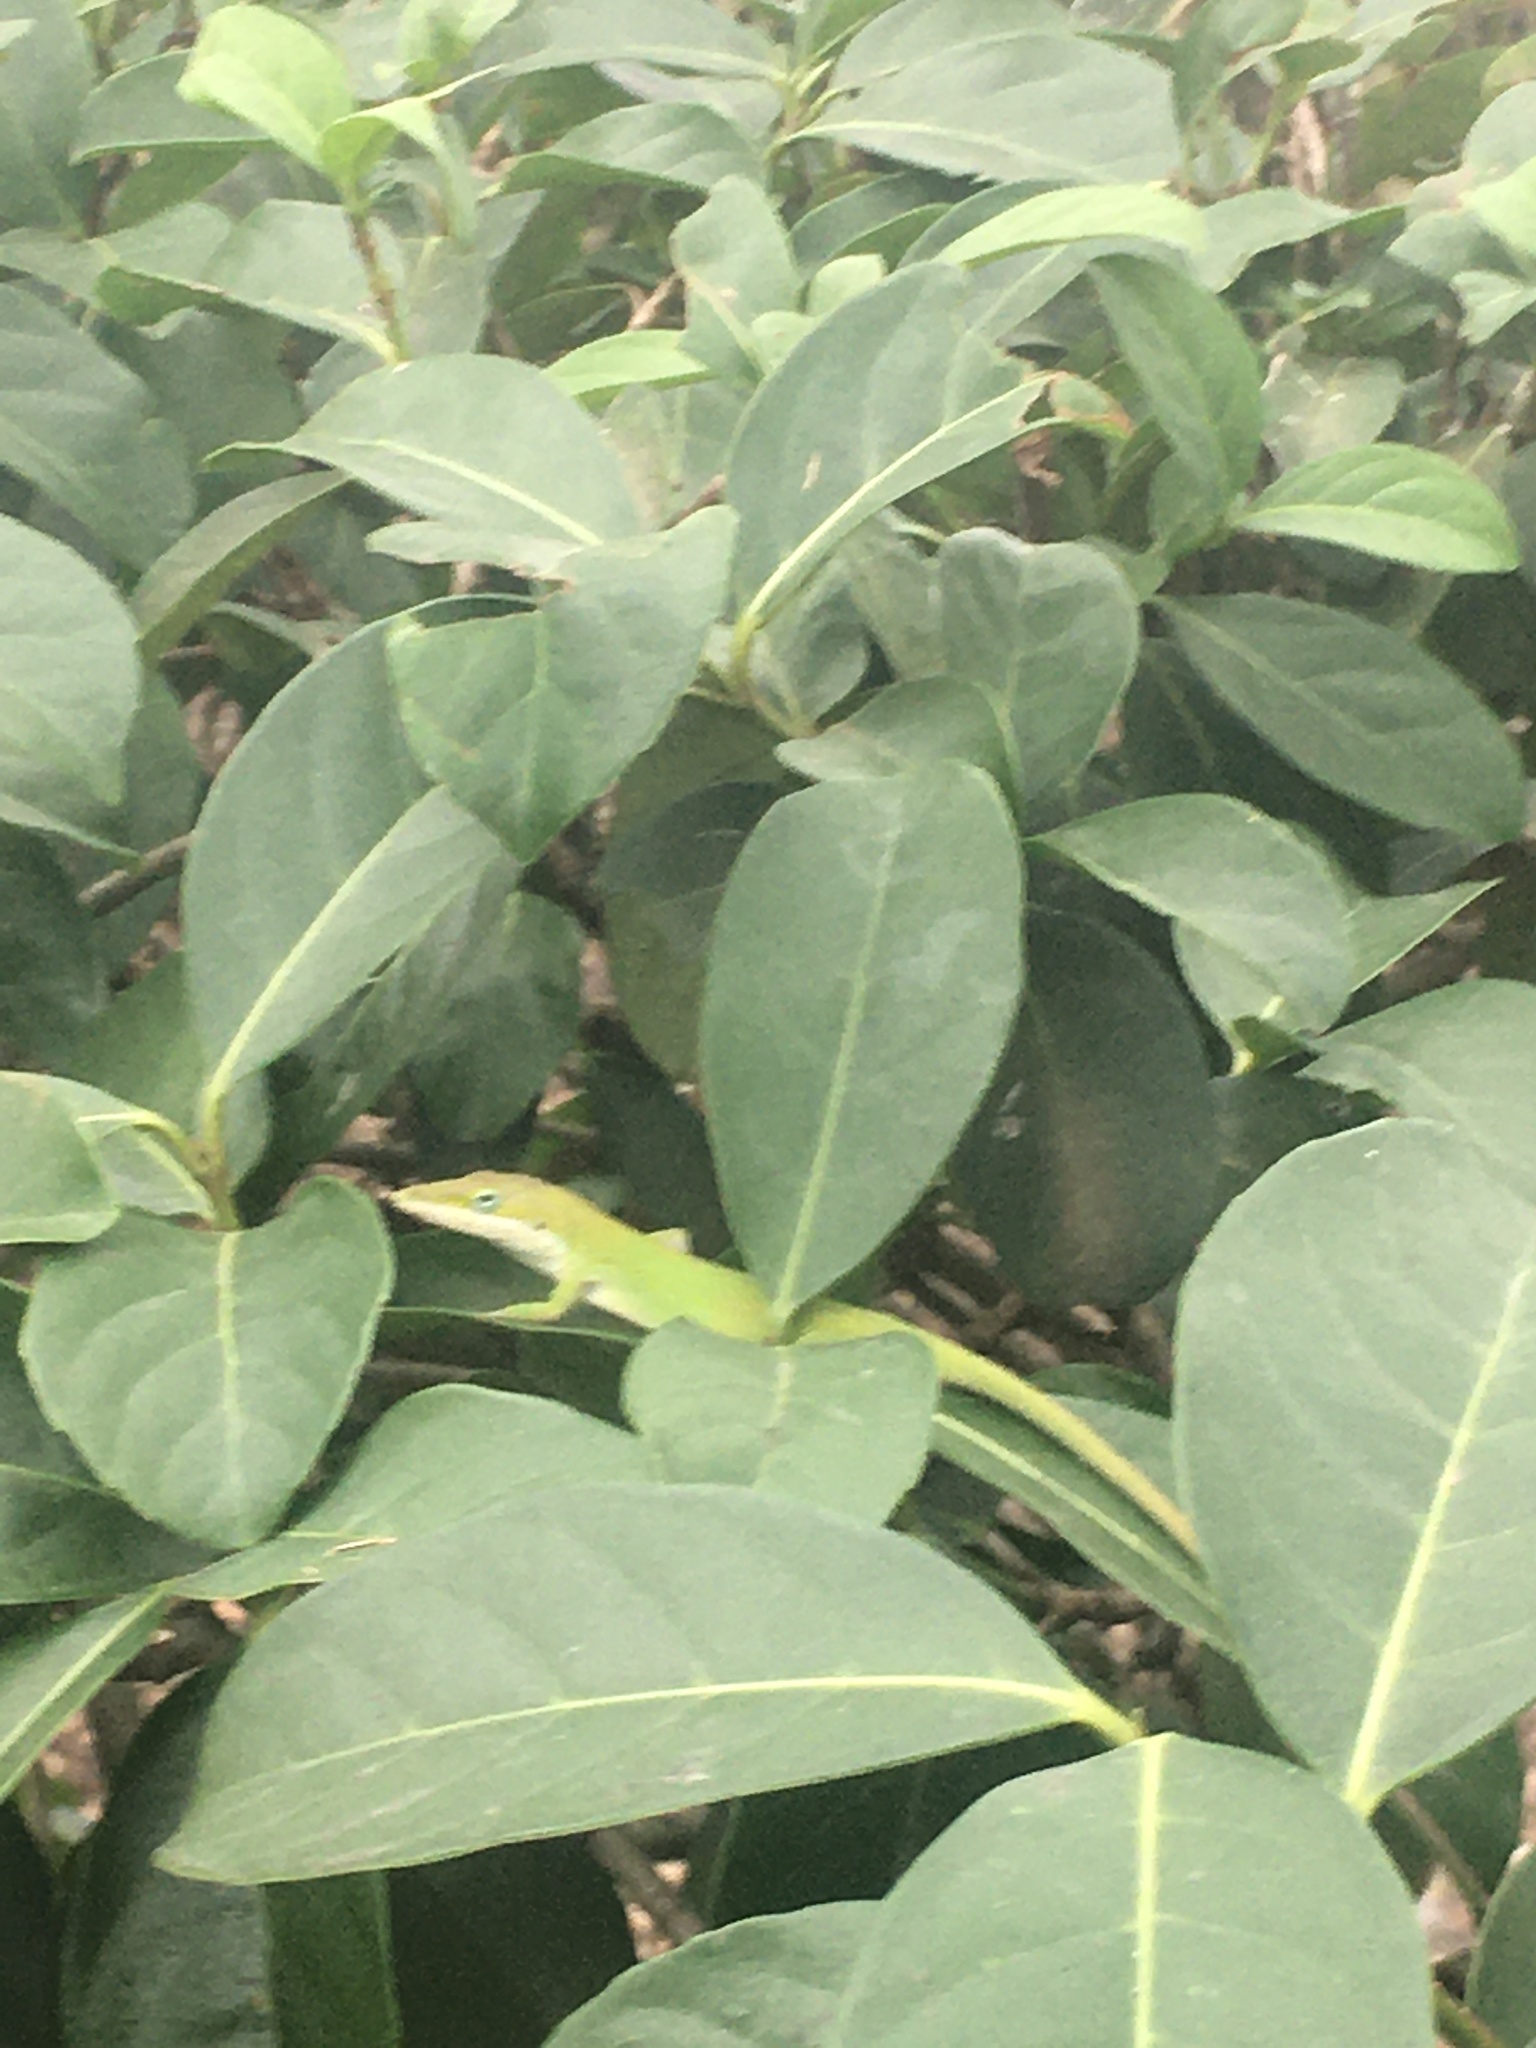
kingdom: Animalia
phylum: Chordata
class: Squamata
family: Dactyloidae
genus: Anolis
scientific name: Anolis carolinensis
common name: Green anole
